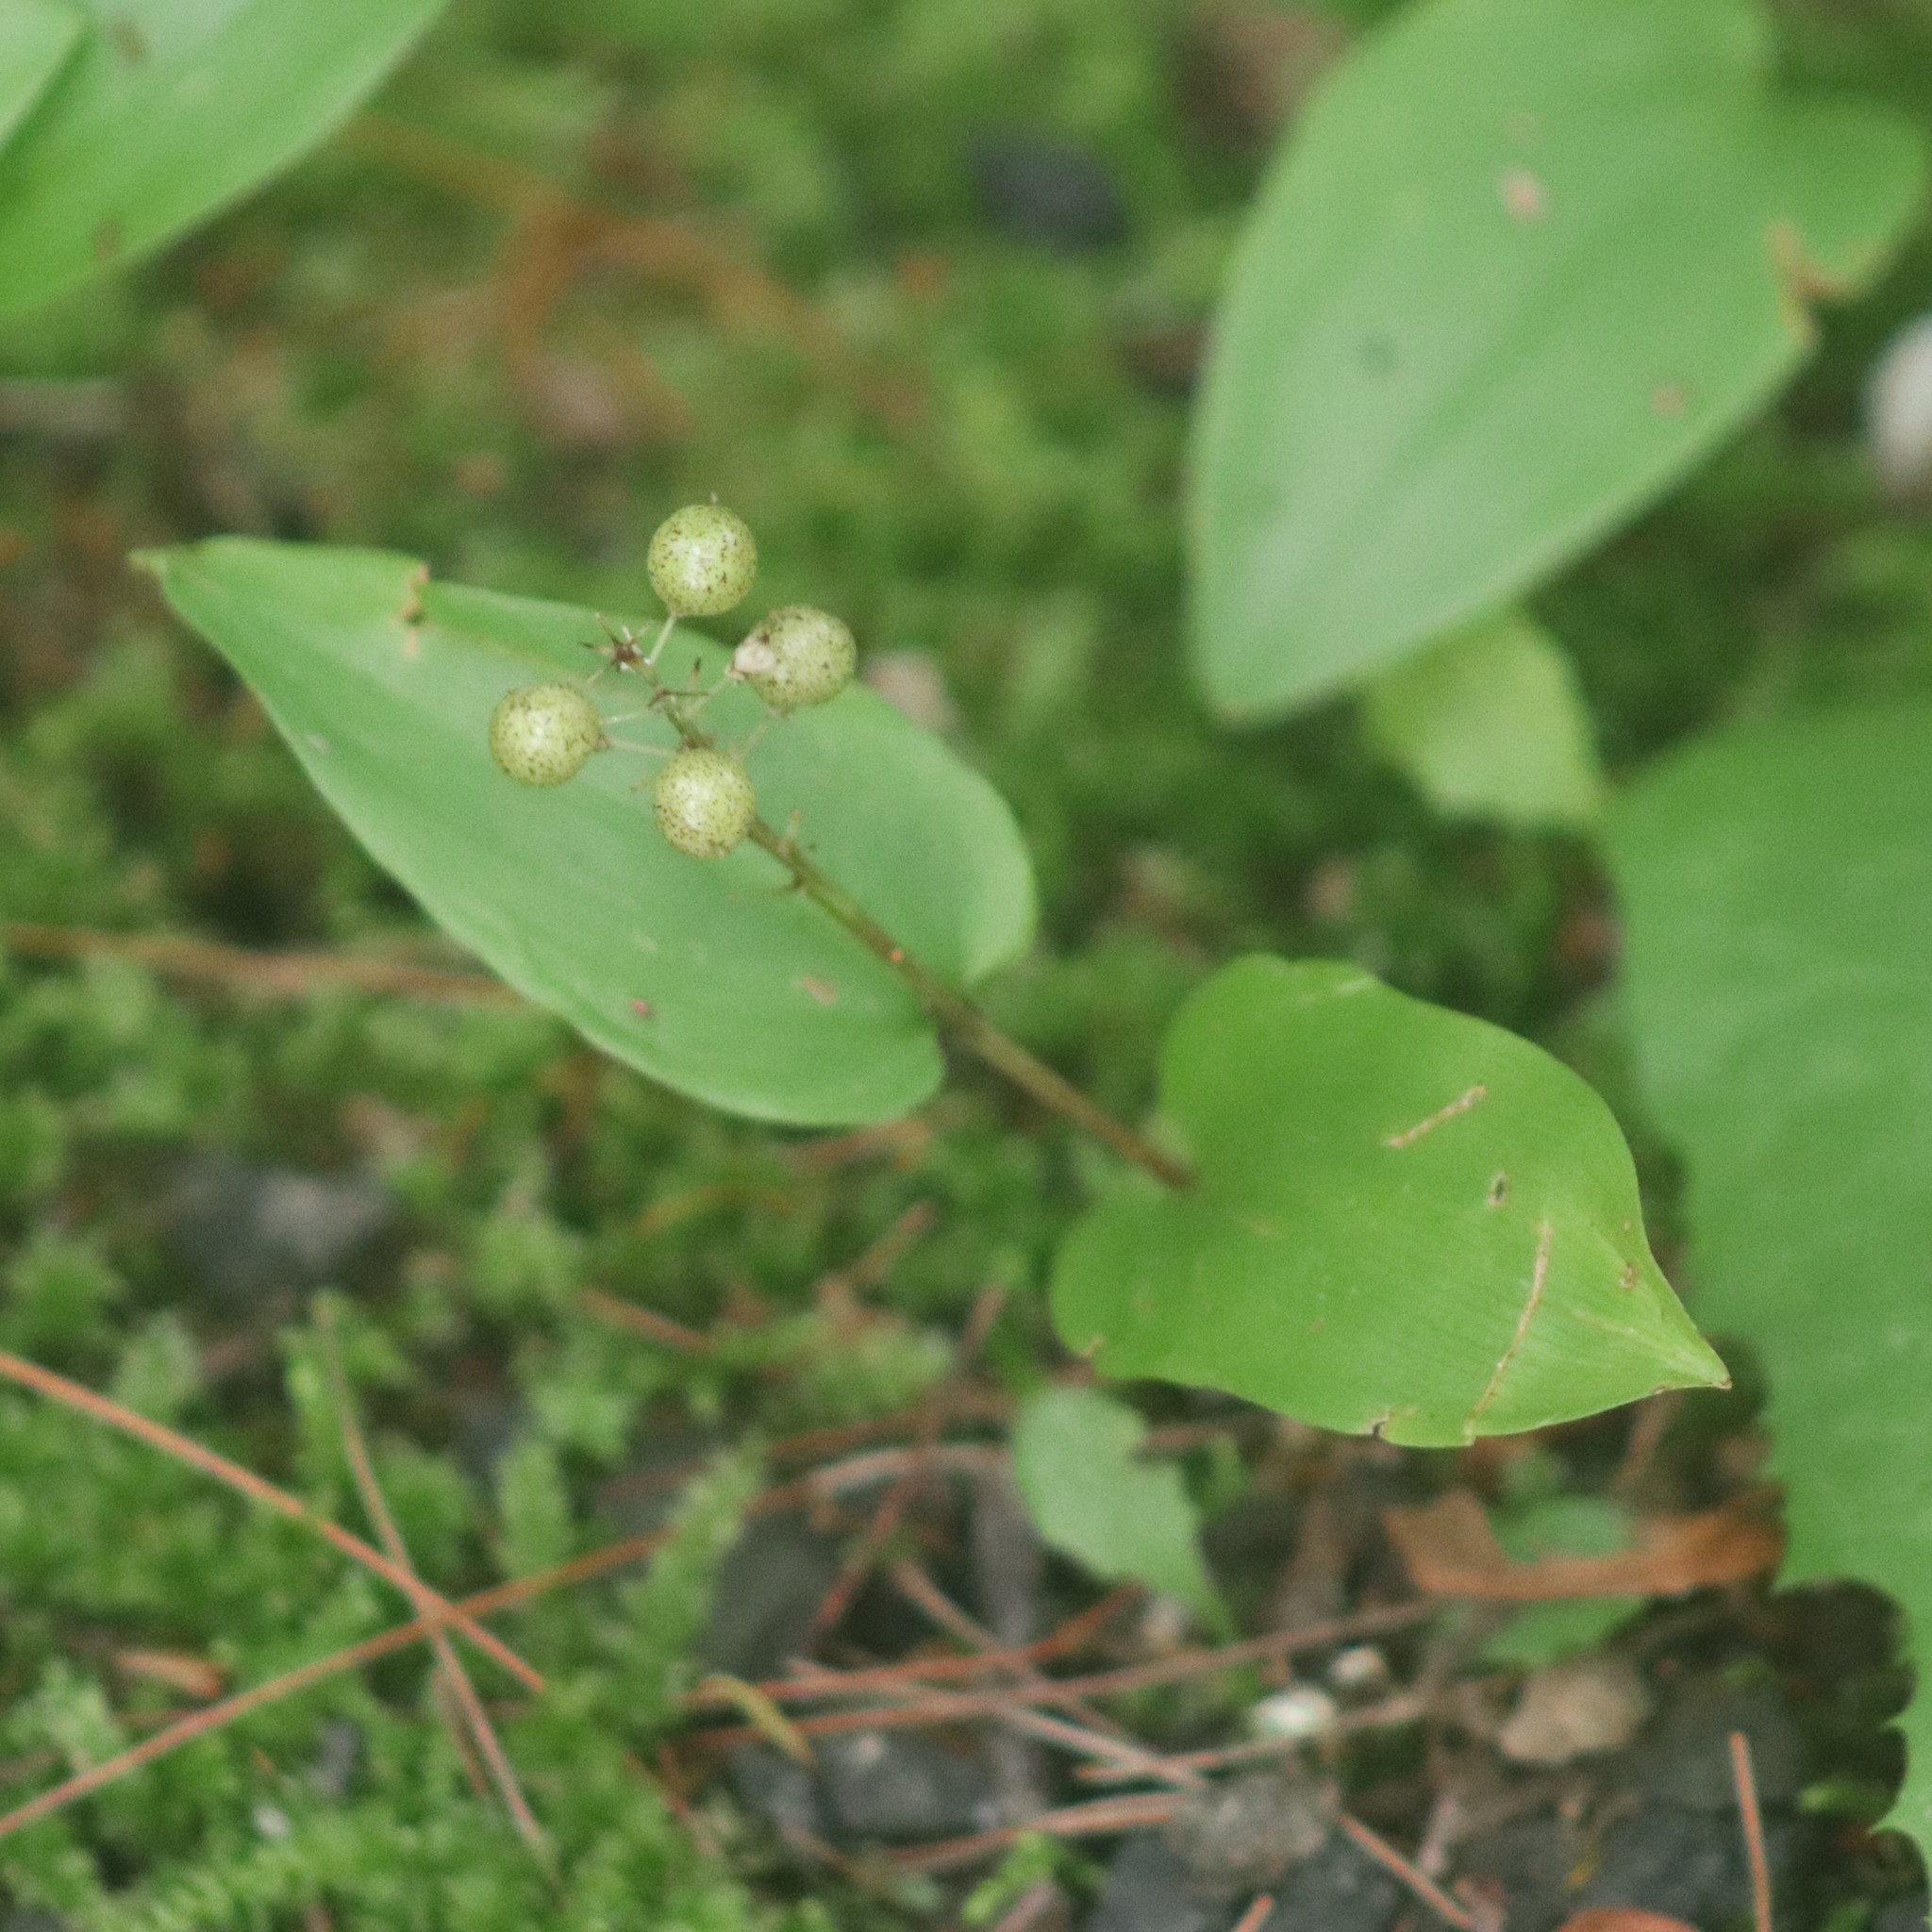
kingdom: Plantae
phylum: Tracheophyta
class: Liliopsida
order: Asparagales
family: Asparagaceae
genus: Maianthemum
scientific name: Maianthemum canadense
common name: False lily-of-the-valley
